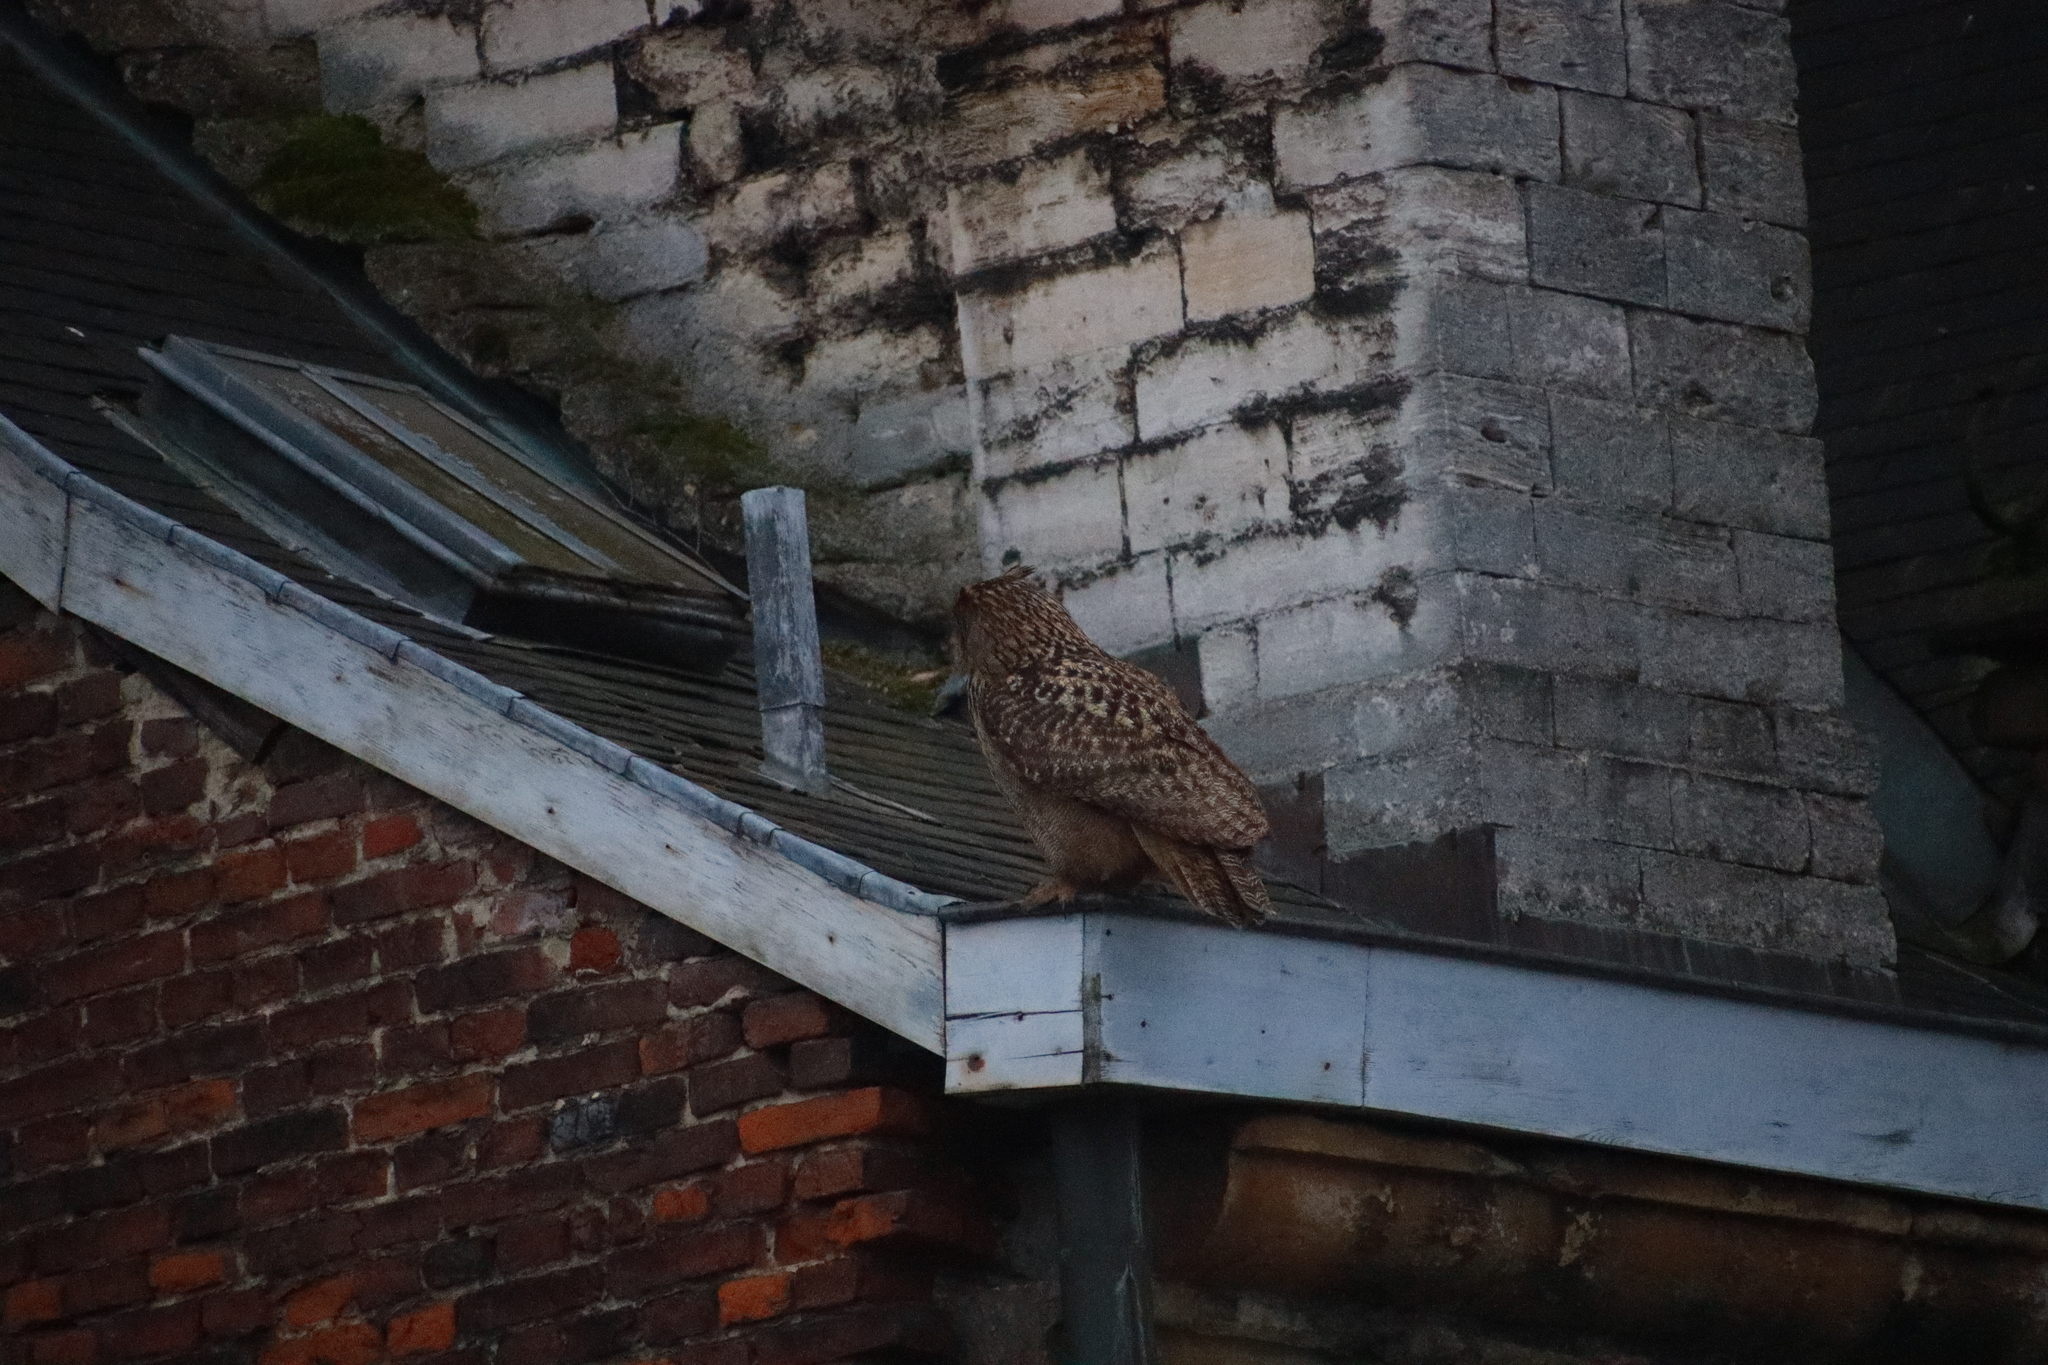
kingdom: Animalia
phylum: Chordata
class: Aves
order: Strigiformes
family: Strigidae
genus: Bubo
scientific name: Bubo bubo
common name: Eurasian eagle-owl
